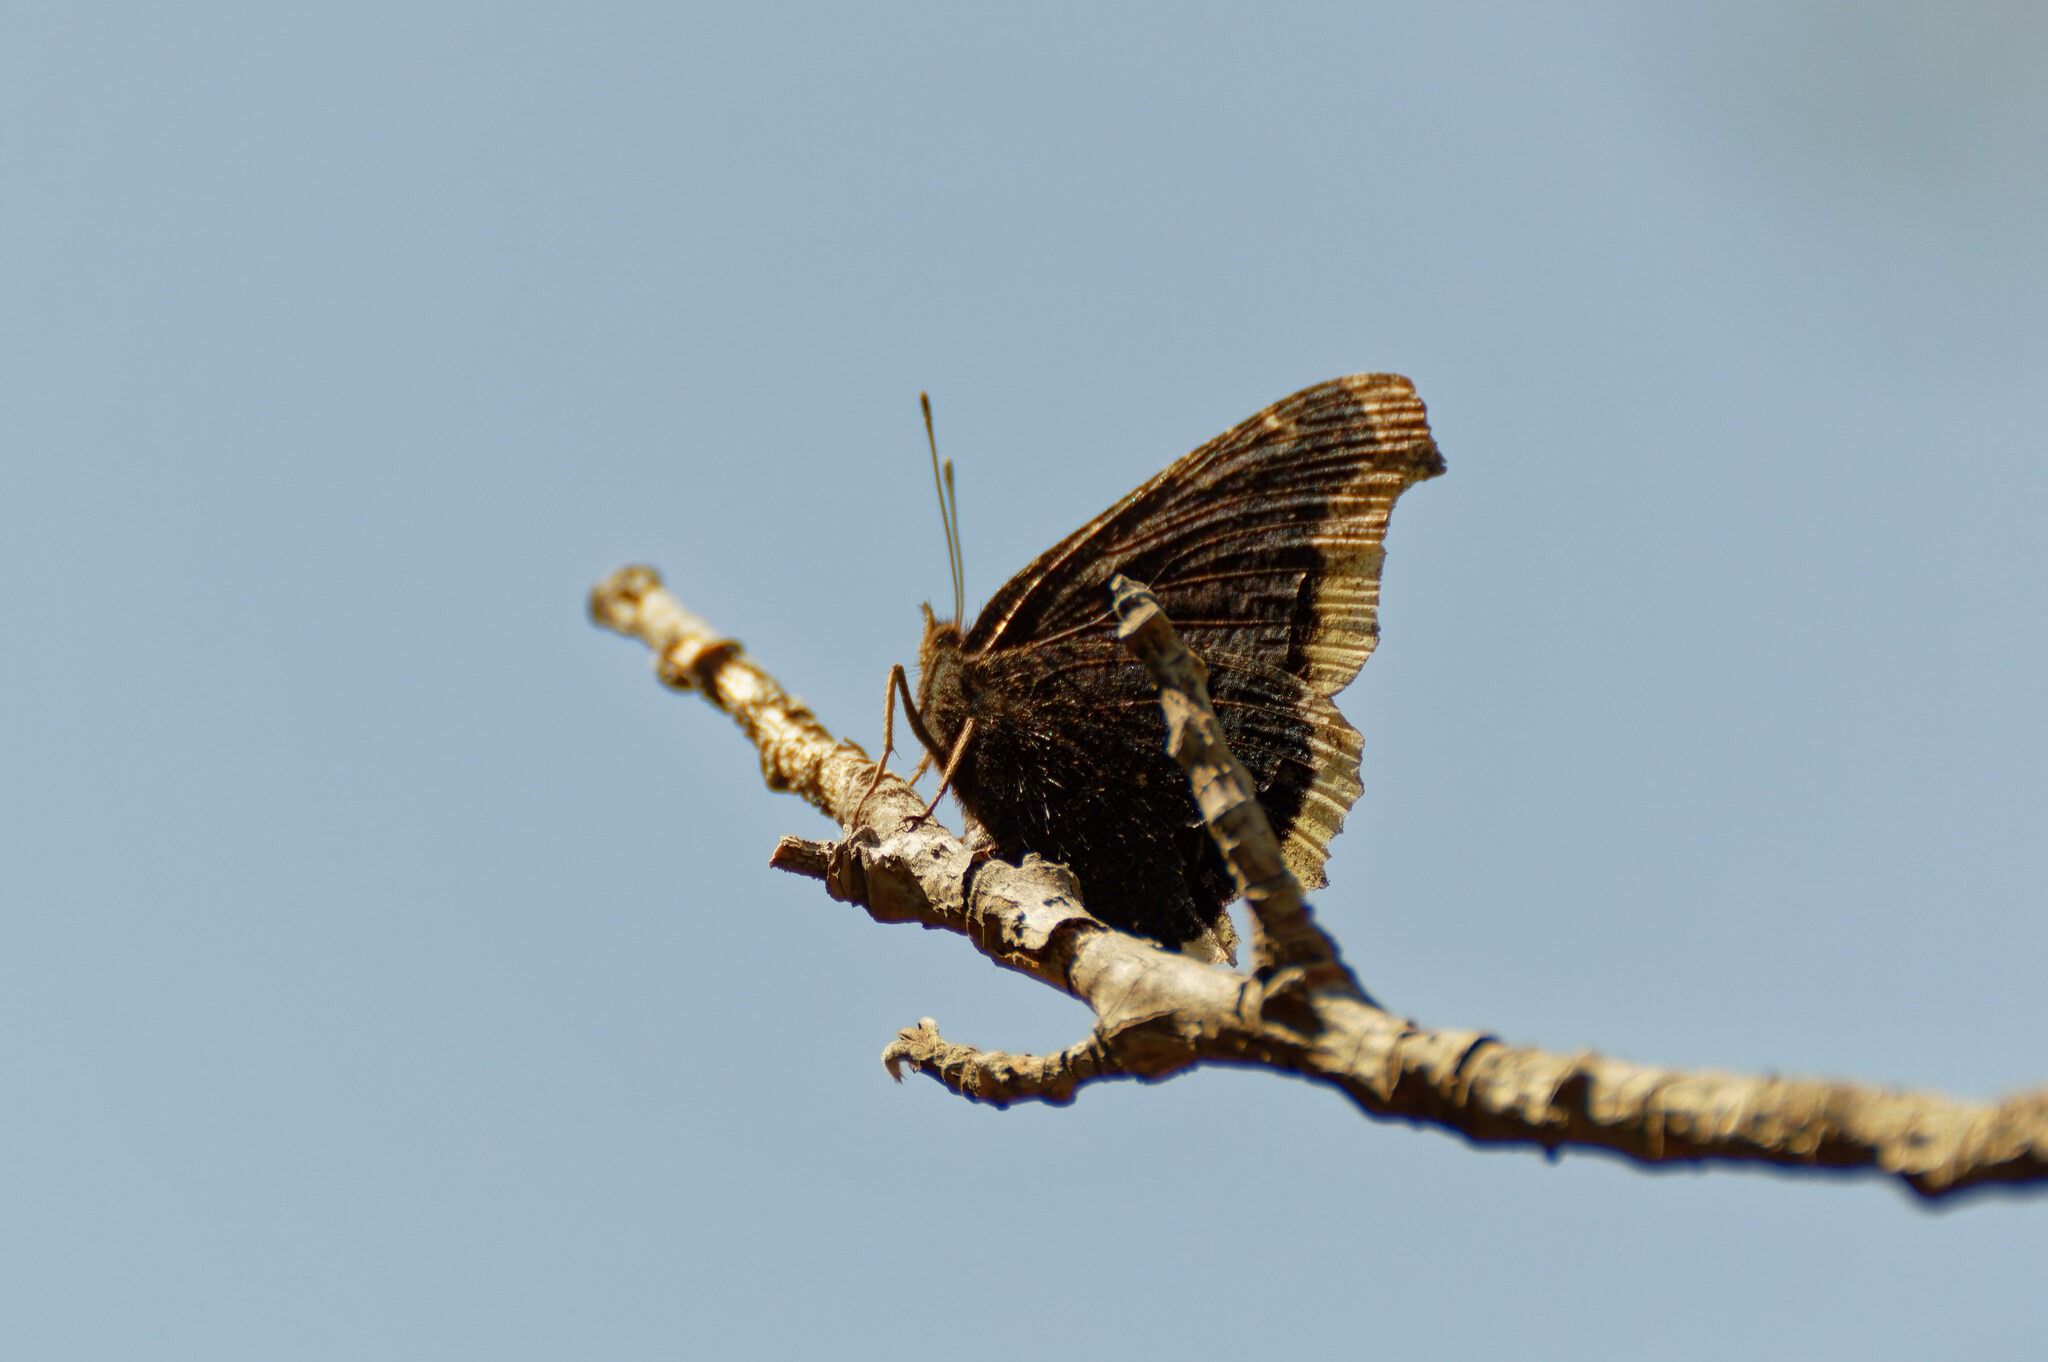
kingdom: Animalia
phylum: Arthropoda
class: Insecta
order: Lepidoptera
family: Nymphalidae
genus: Nymphalis
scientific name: Nymphalis antiopa
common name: Camberwell beauty
